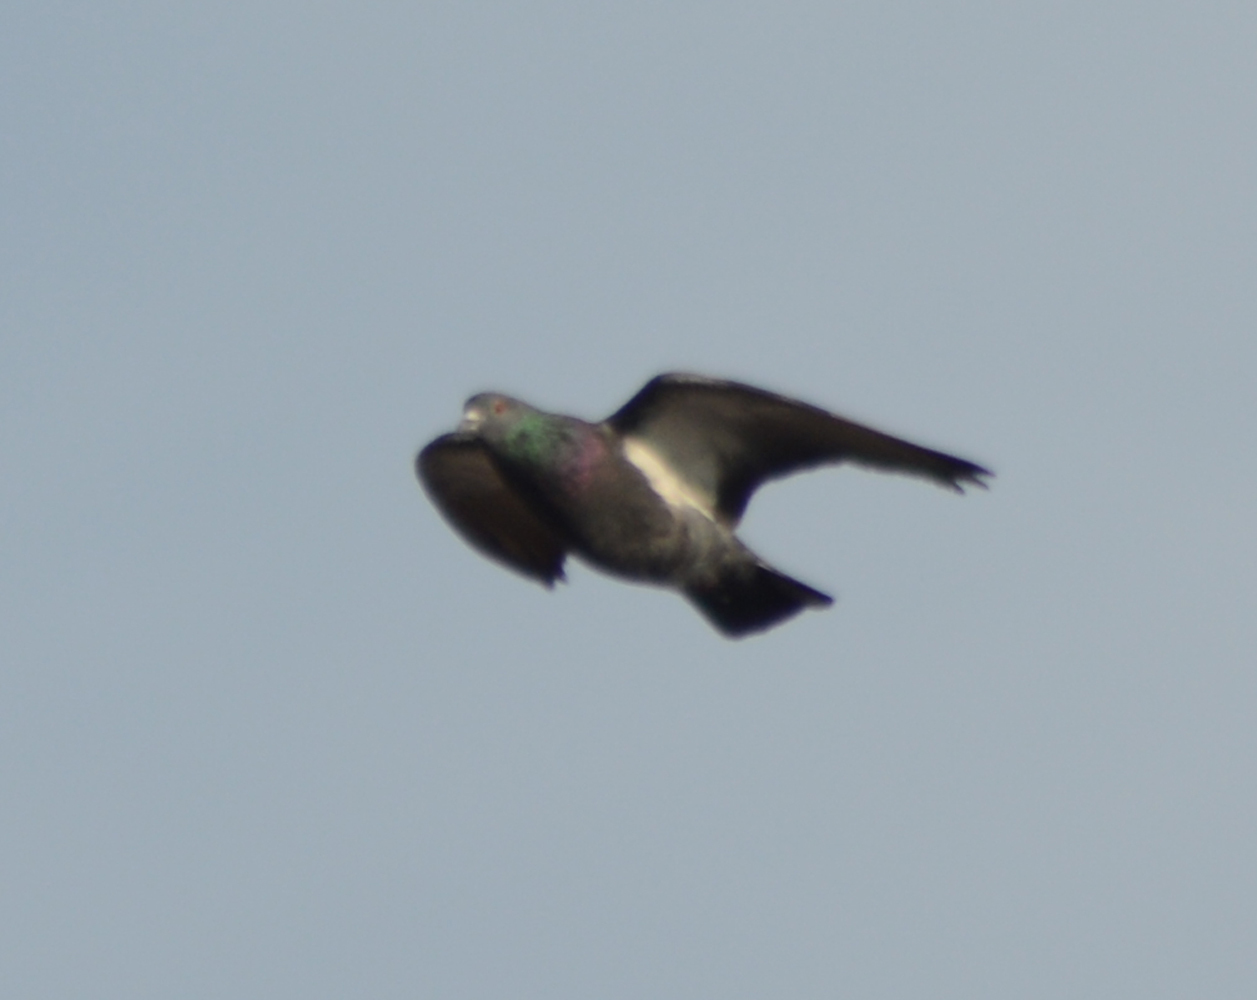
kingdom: Animalia
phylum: Chordata
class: Aves
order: Columbiformes
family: Columbidae
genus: Columba
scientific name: Columba livia
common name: Rock pigeon
